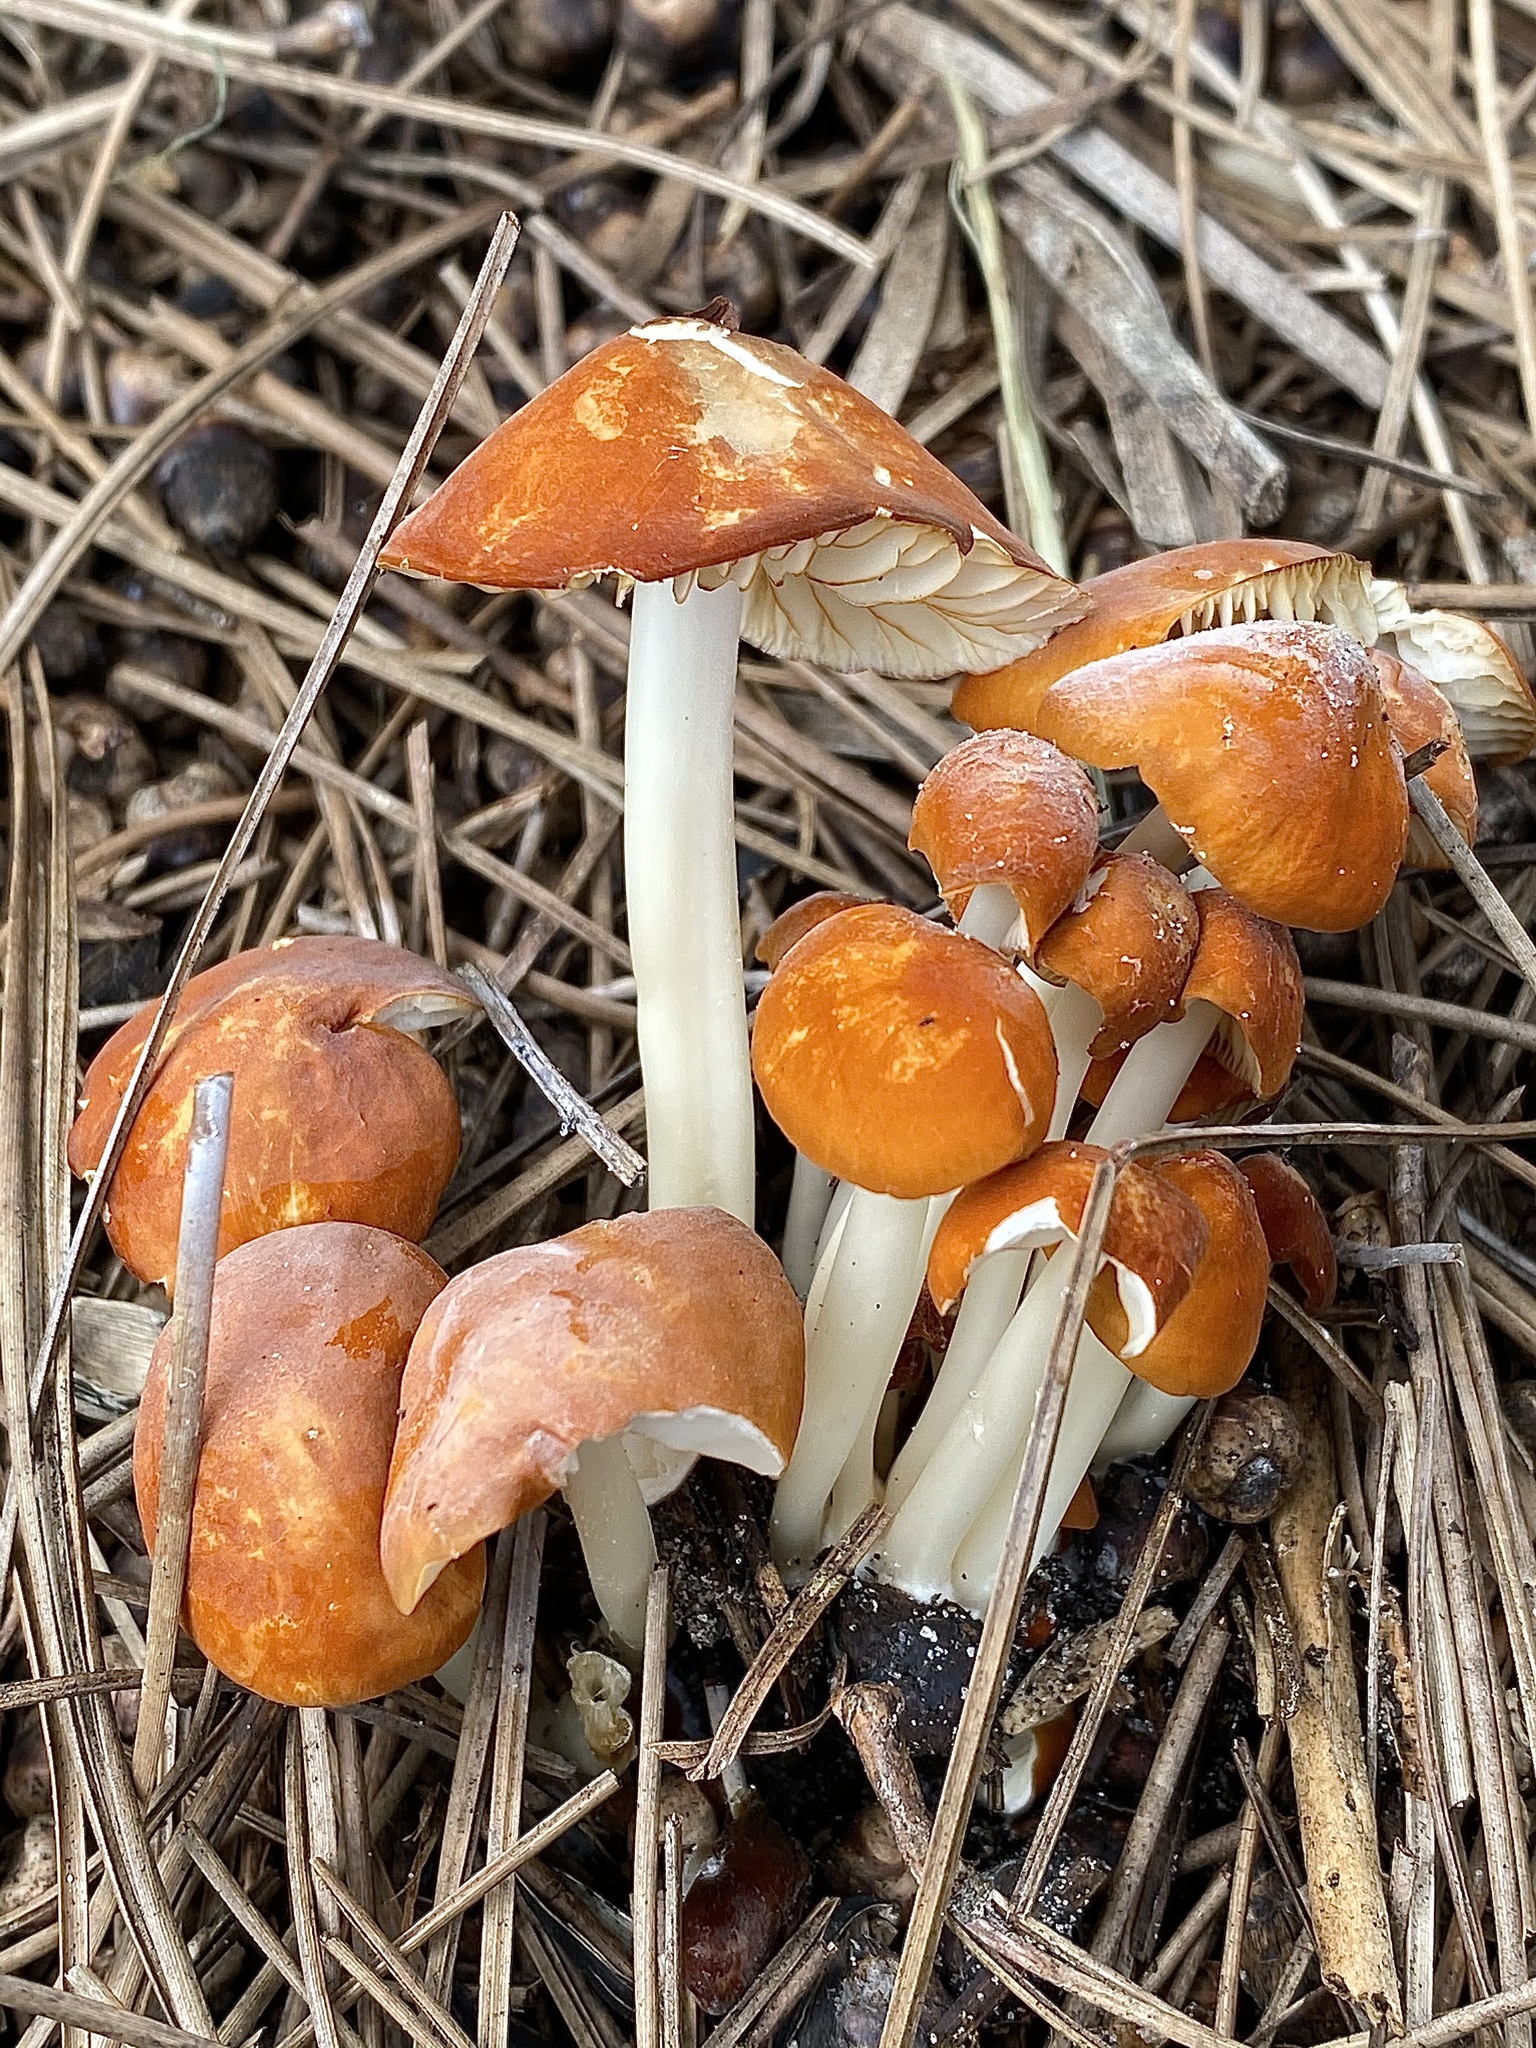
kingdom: Fungi
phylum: Basidiomycota
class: Agaricomycetes
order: Agaricales
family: Marasmiaceae
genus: Marasmius
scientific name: Marasmius vagus
